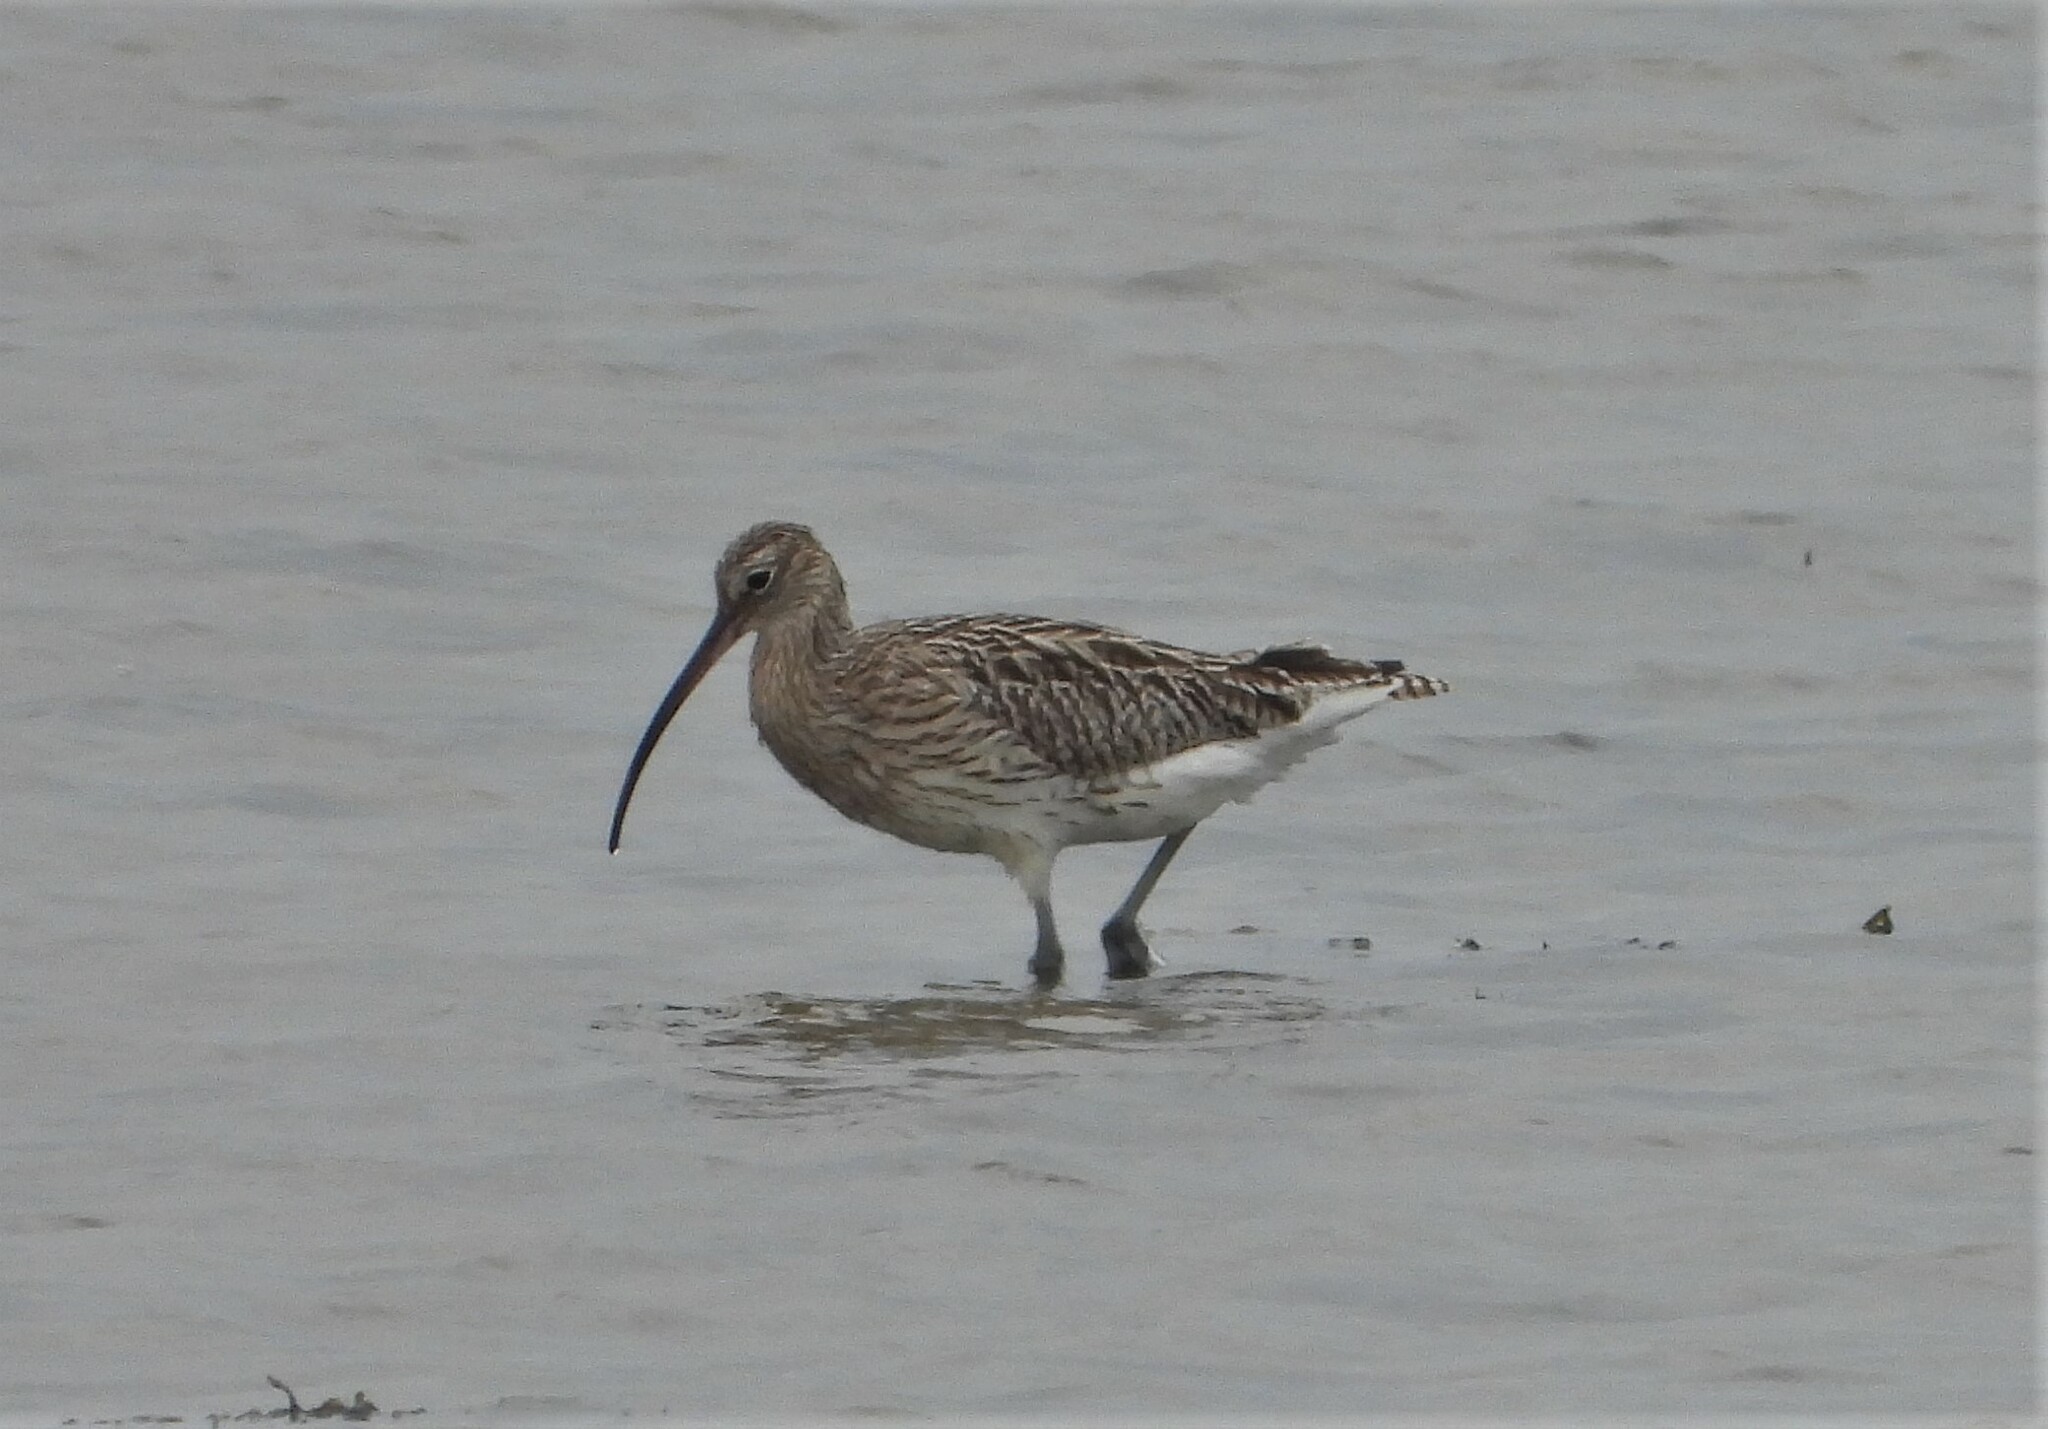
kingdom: Animalia
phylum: Chordata
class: Aves
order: Charadriiformes
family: Scolopacidae
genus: Numenius
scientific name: Numenius arquata
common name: Eurasian curlew
